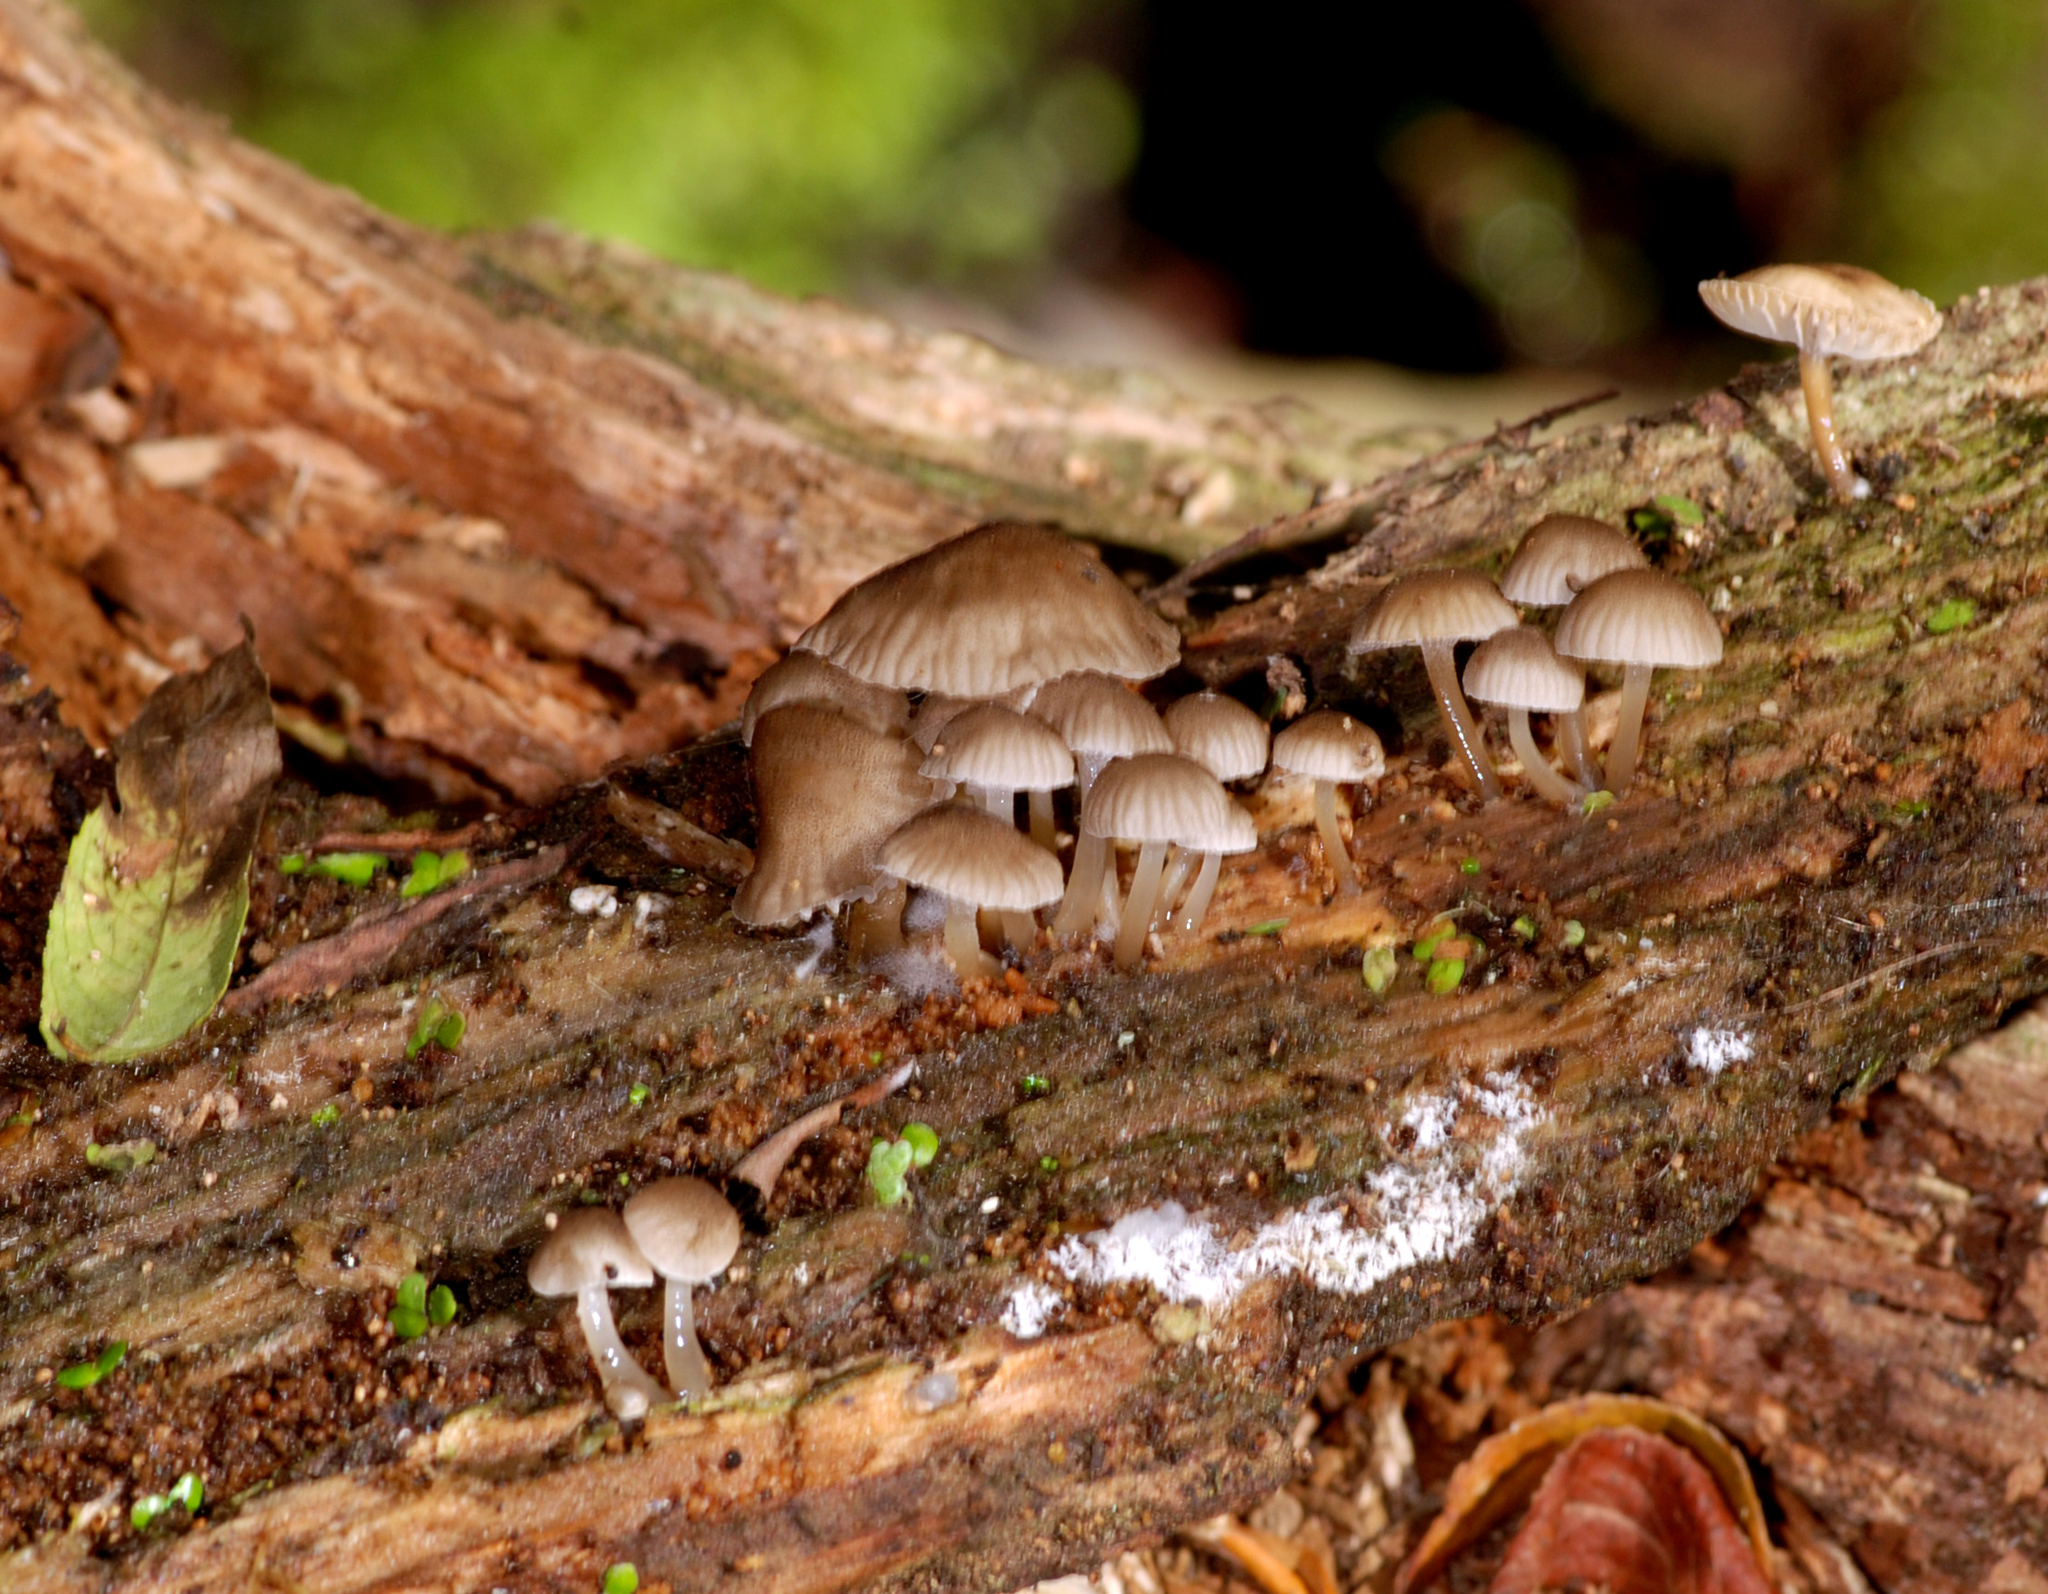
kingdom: Fungi
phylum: Basidiomycota
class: Agaricomycetes
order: Agaricales
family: Mycenaceae
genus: Roridomyces
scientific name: Roridomyces austrororidus
